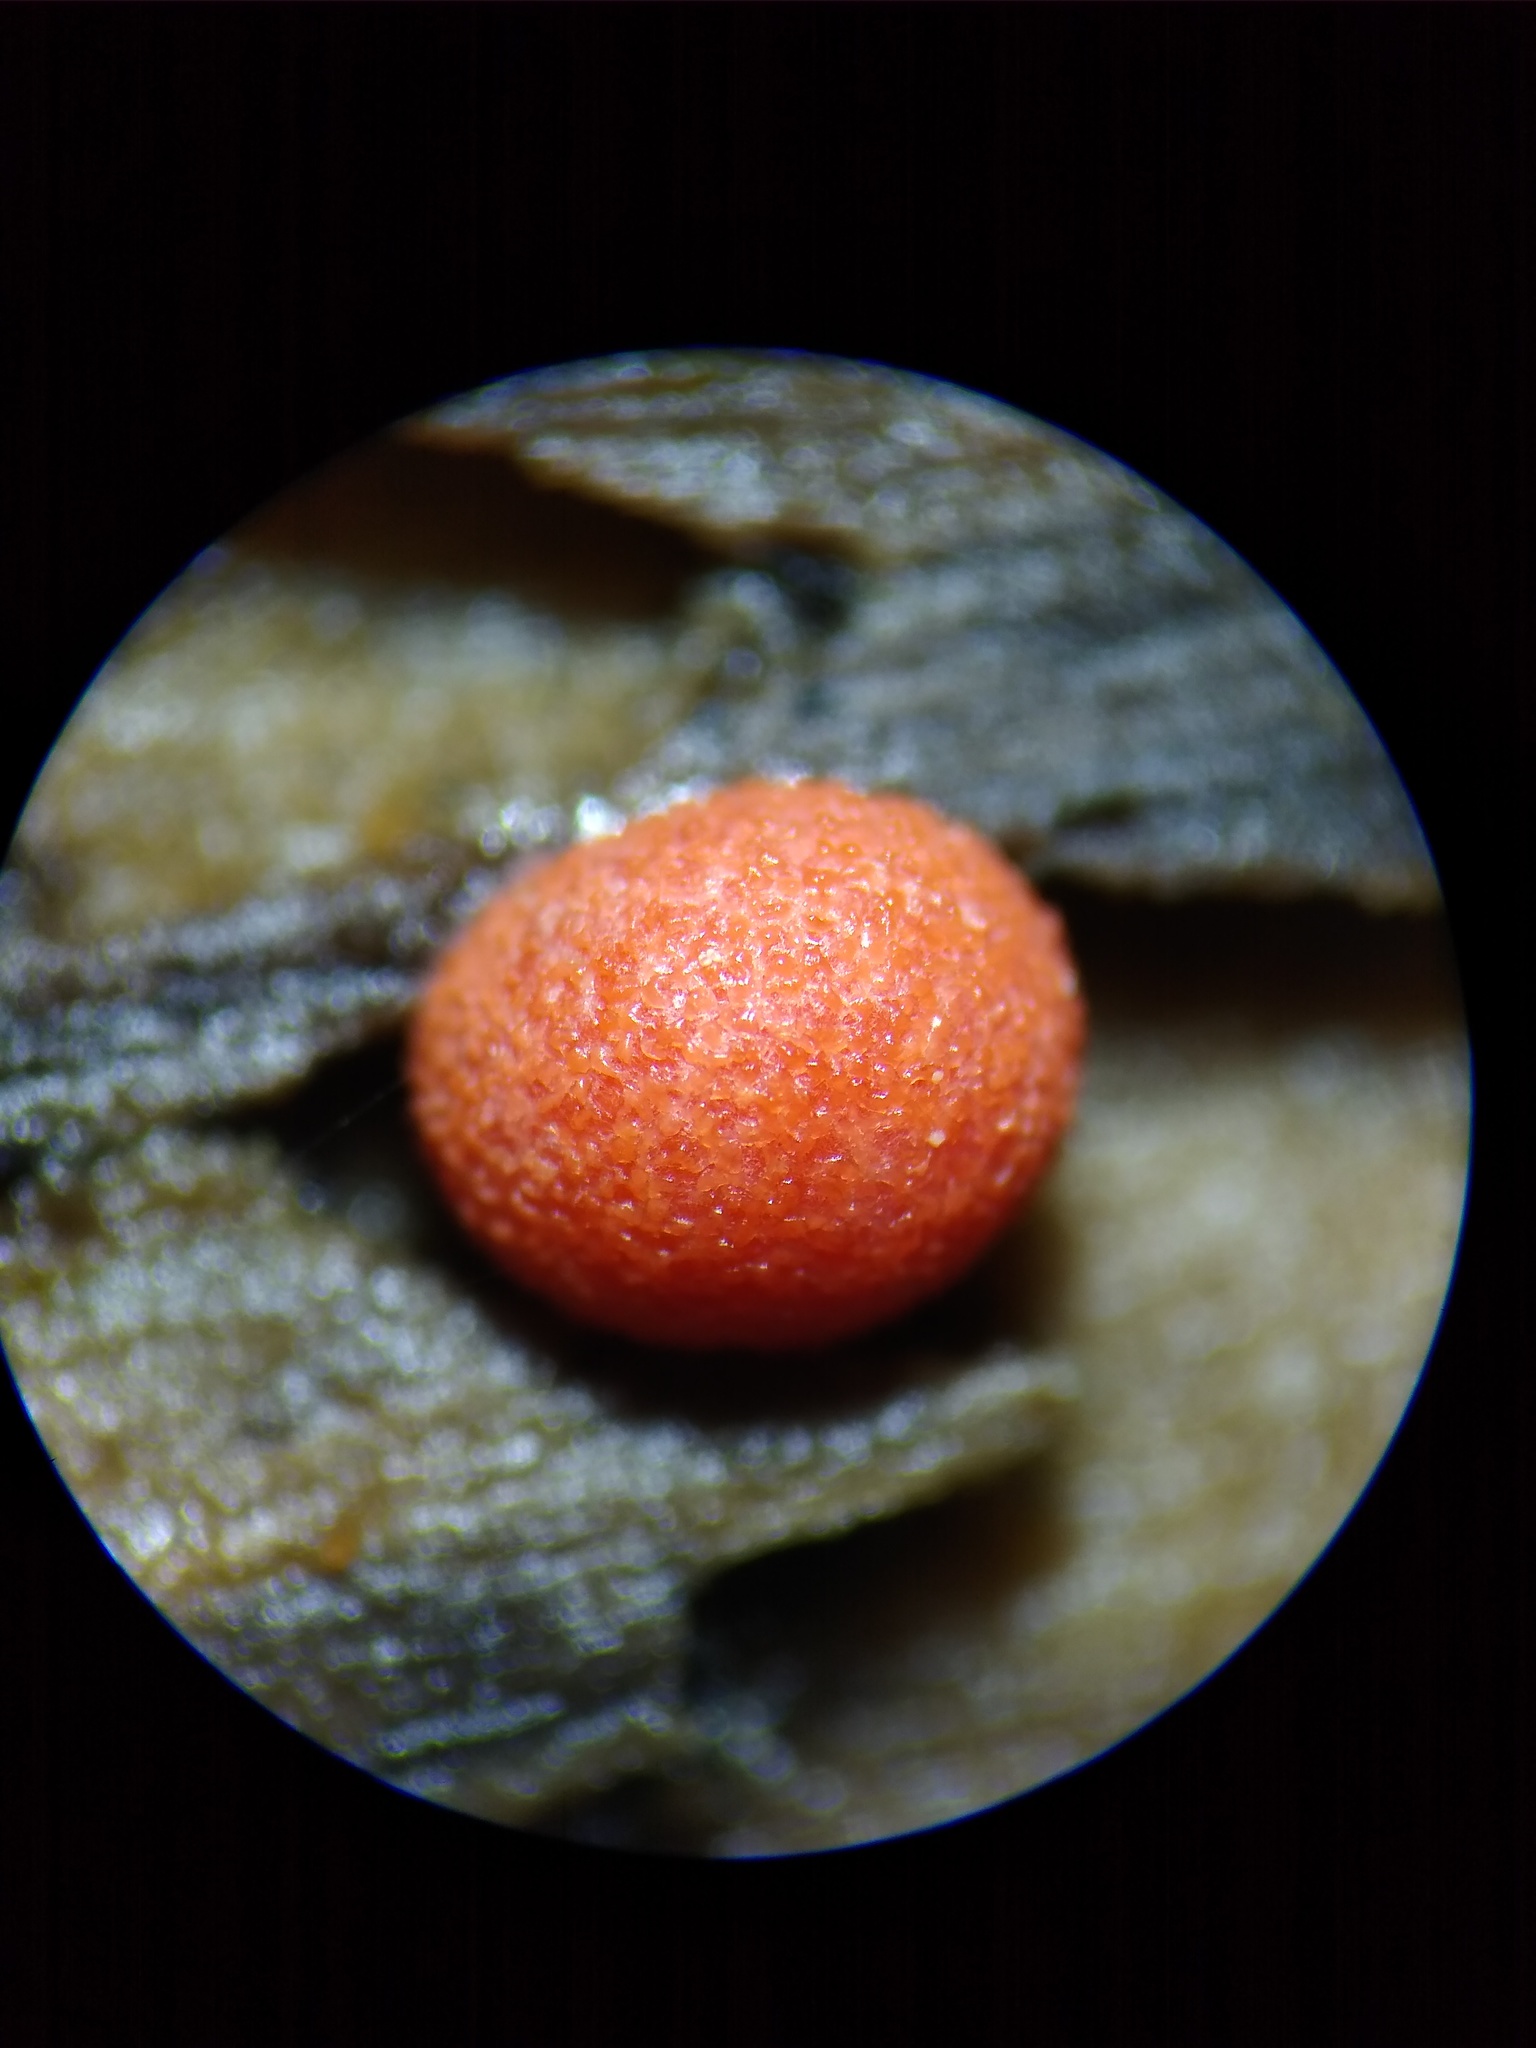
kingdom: Protozoa
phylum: Mycetozoa
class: Myxomycetes
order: Cribrariales
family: Tubiferaceae
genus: Lycogala
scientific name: Lycogala epidendrum
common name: Wolf's milk
